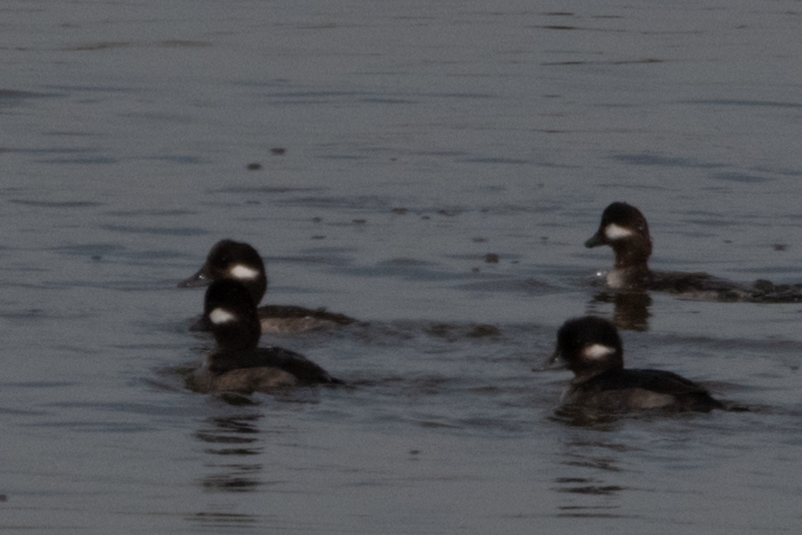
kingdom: Animalia
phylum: Chordata
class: Aves
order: Anseriformes
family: Anatidae
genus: Bucephala
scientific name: Bucephala albeola
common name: Bufflehead
